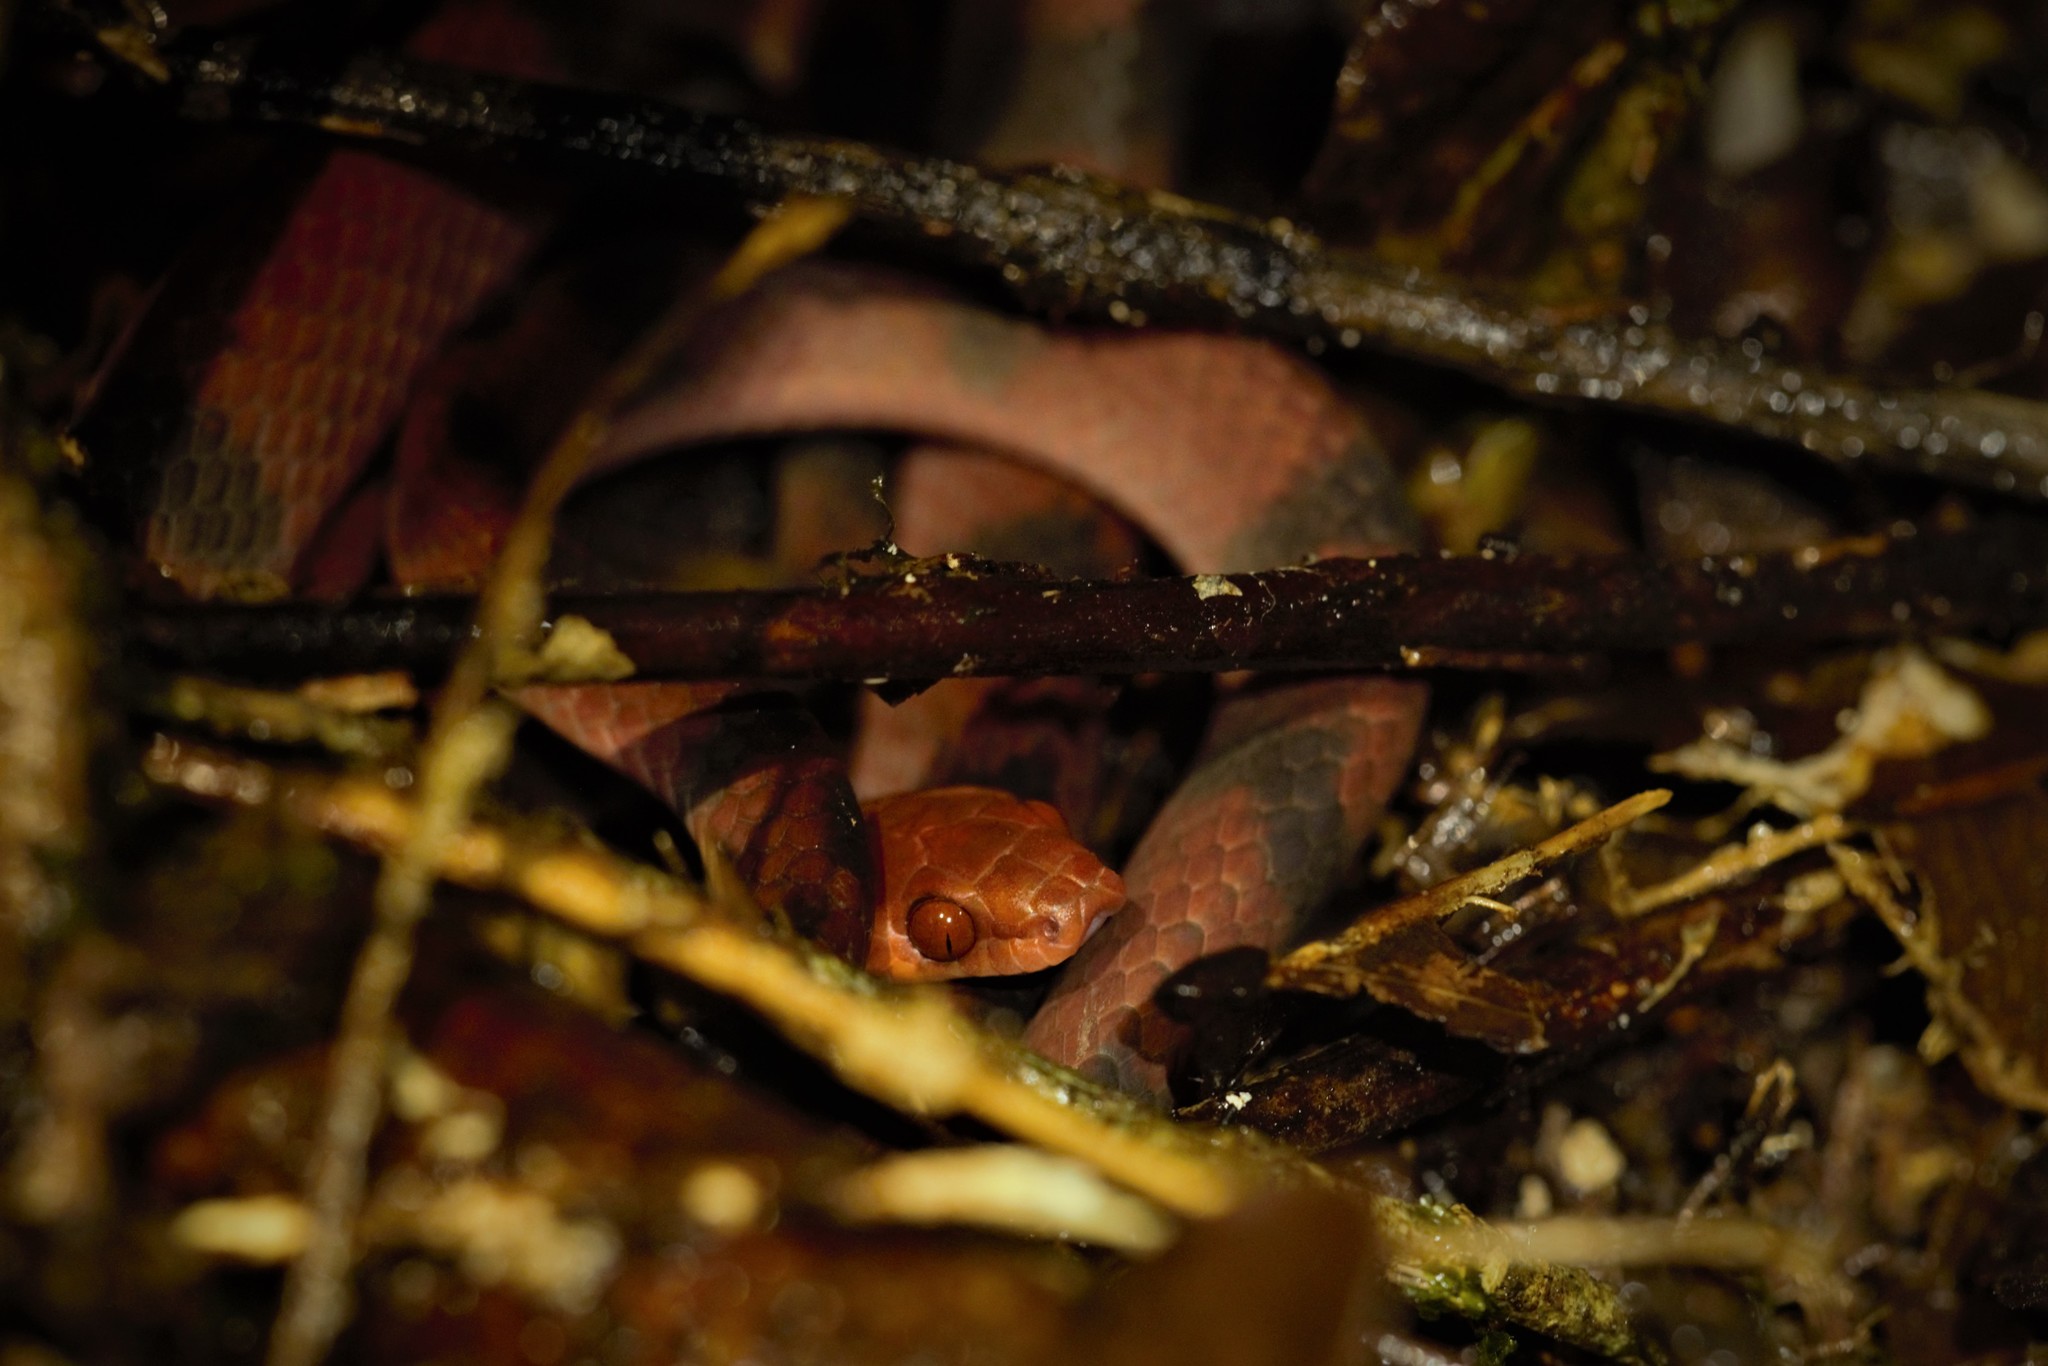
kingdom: Animalia
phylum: Chordata
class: Squamata
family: Colubridae
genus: Siphlophis
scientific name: Siphlophis compressus
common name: Tropical flat snake
